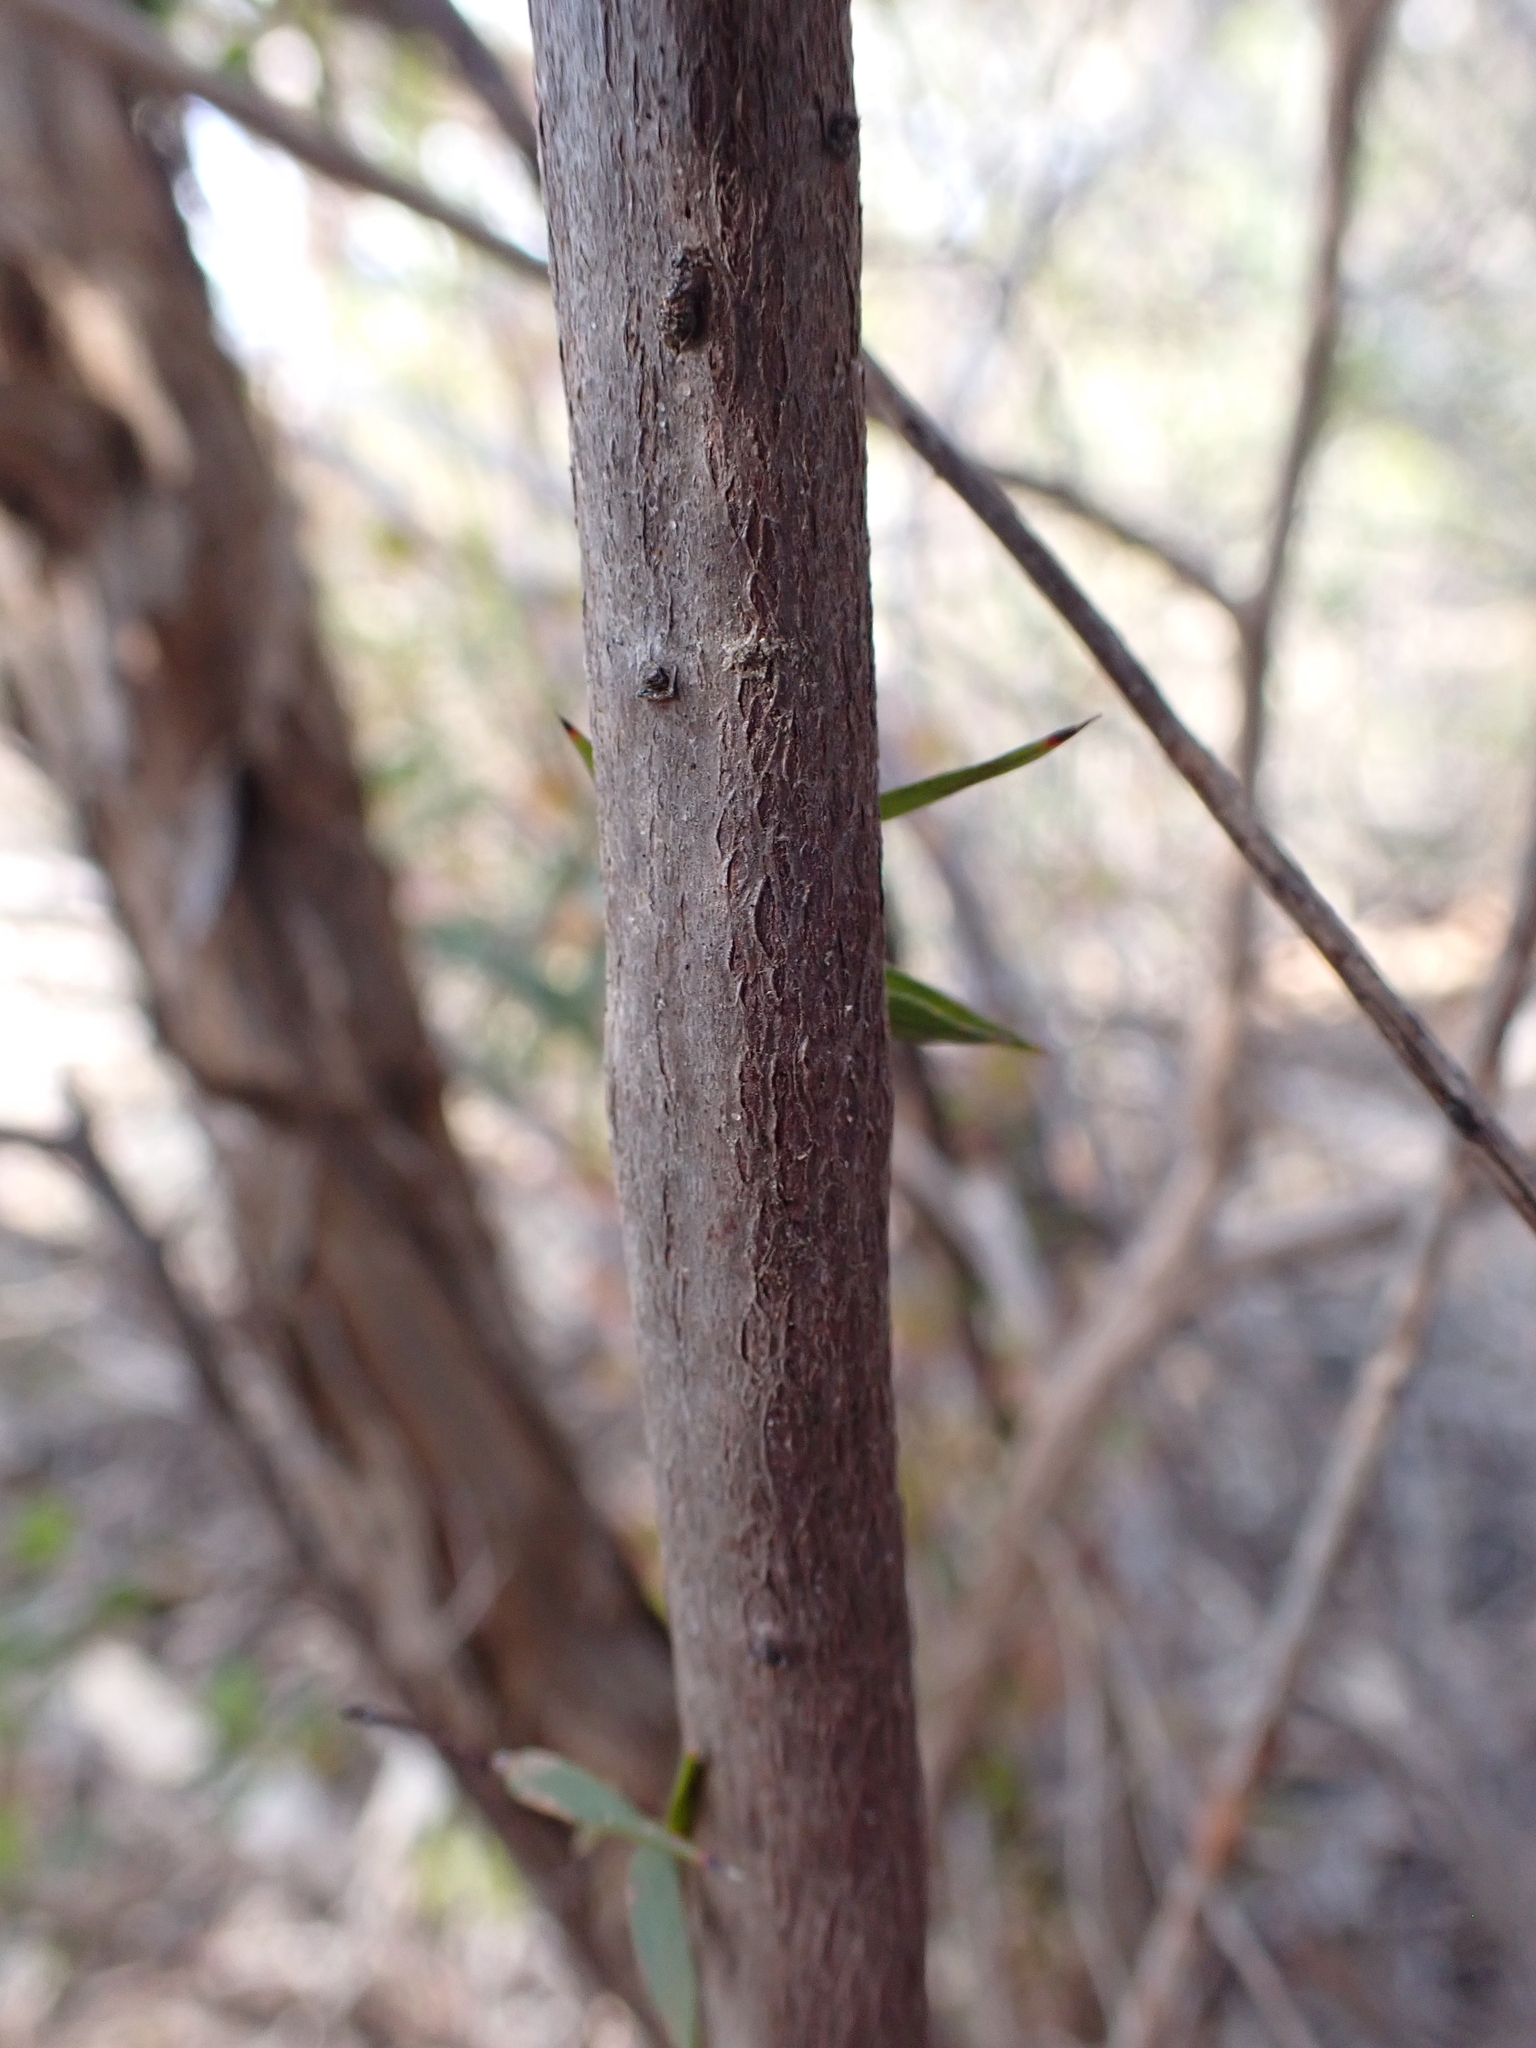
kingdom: Plantae
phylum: Tracheophyta
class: Magnoliopsida
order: Ericales
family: Ericaceae
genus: Leucopogon
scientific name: Leucopogon virgatus
